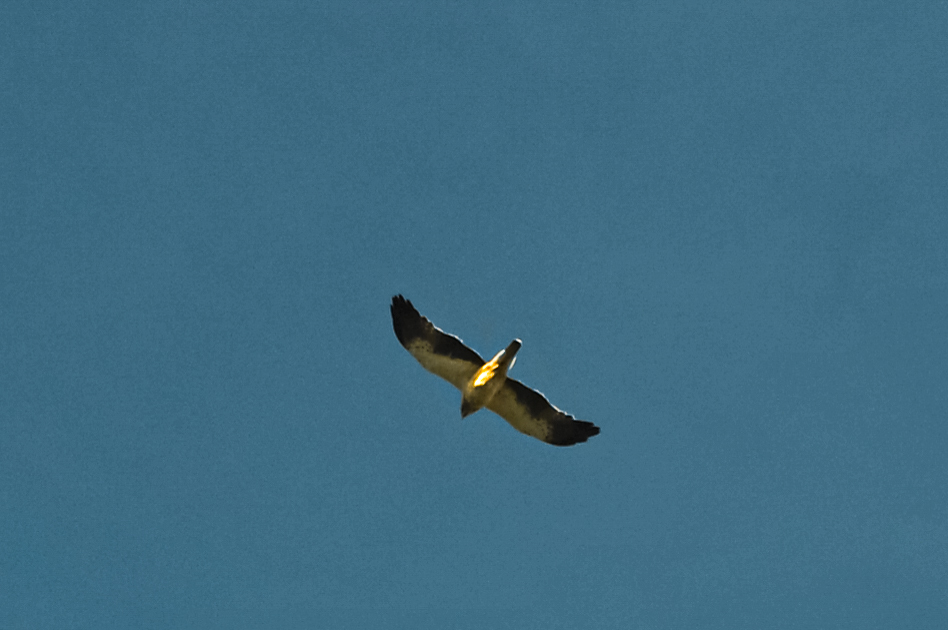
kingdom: Animalia
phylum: Chordata
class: Aves
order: Accipitriformes
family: Accipitridae
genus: Hieraaetus
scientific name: Hieraaetus pennatus
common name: Booted eagle
